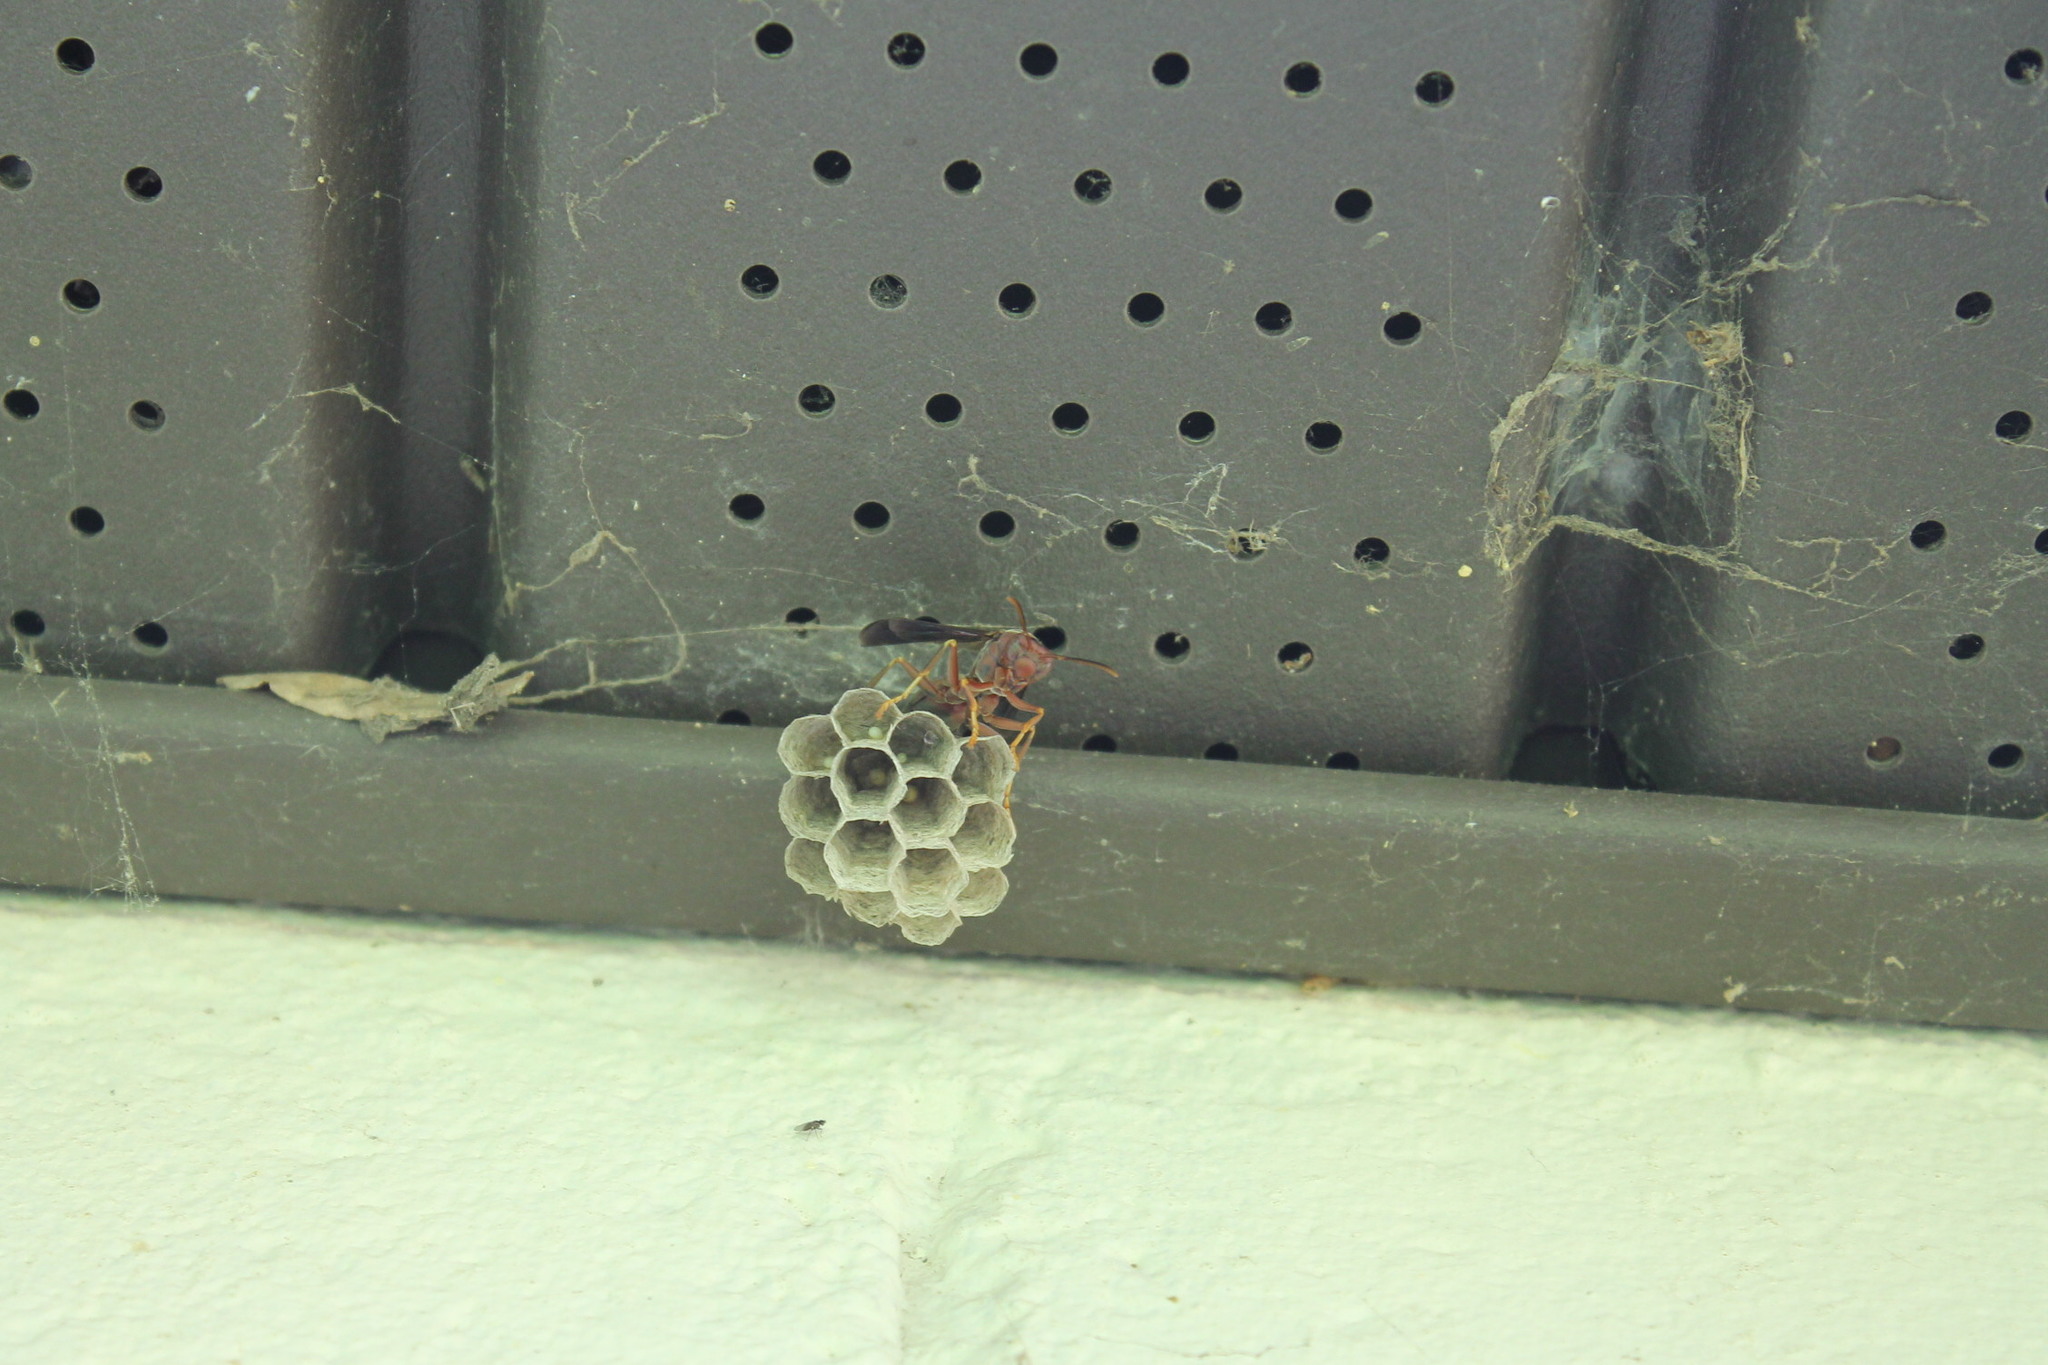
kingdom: Animalia
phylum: Arthropoda
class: Insecta
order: Hymenoptera
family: Vespidae
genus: Fuscopolistes
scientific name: Fuscopolistes
